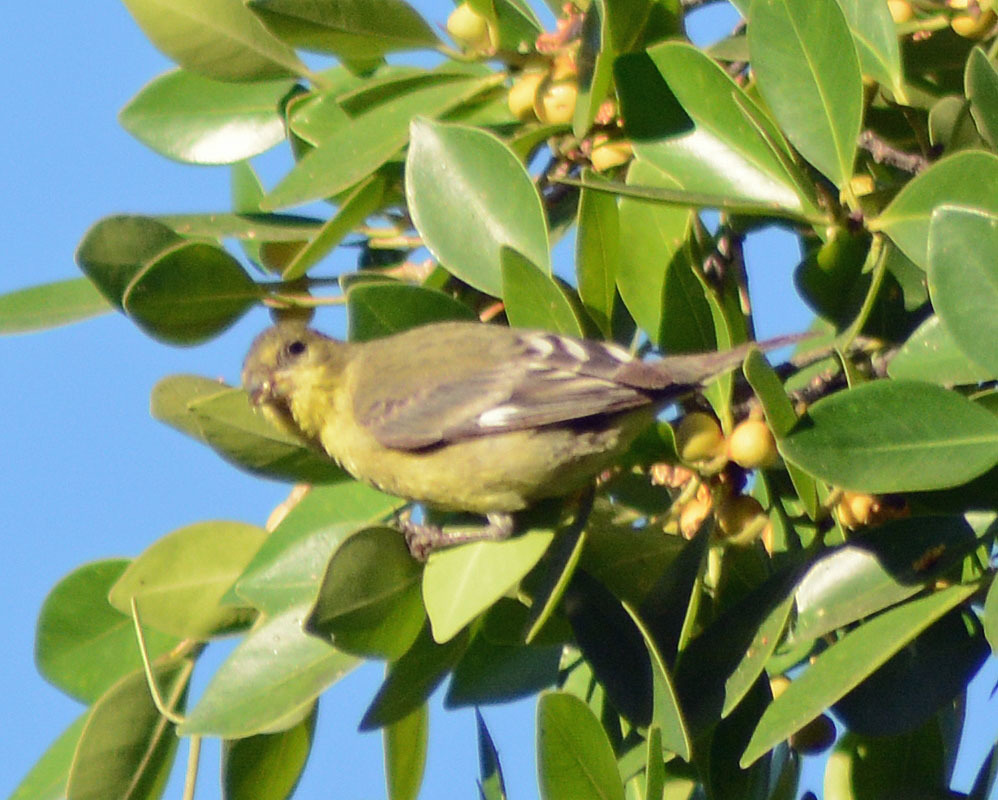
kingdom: Animalia
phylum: Chordata
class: Aves
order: Passeriformes
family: Fringillidae
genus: Spinus
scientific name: Spinus psaltria
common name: Lesser goldfinch
